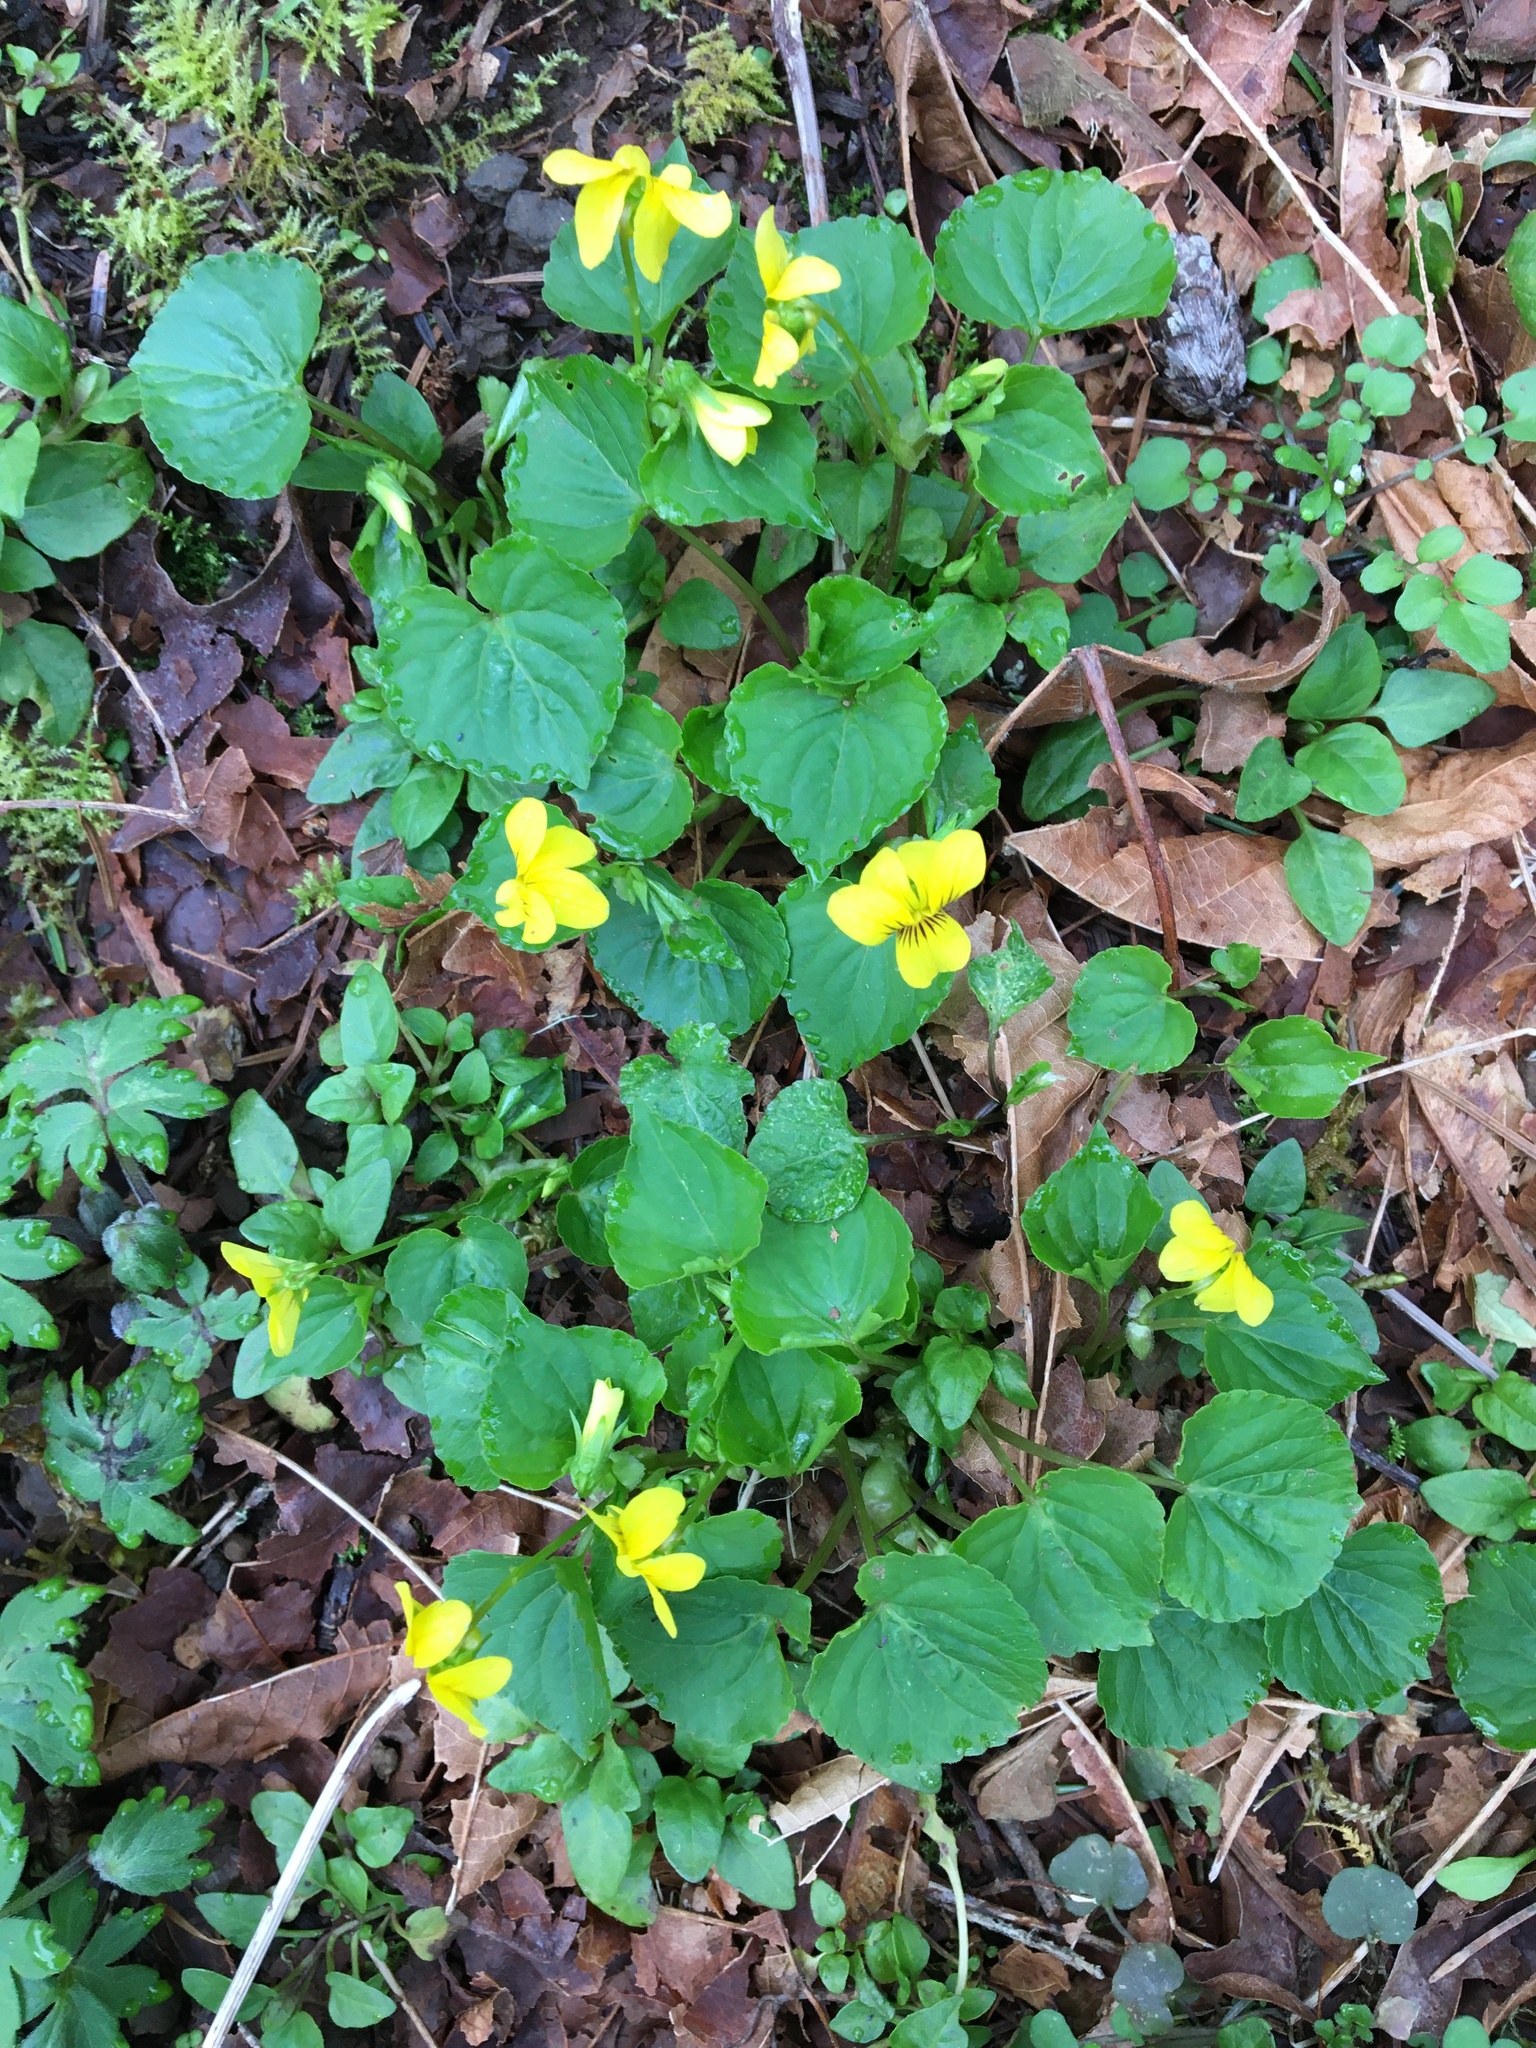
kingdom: Plantae
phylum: Tracheophyta
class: Magnoliopsida
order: Malpighiales
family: Violaceae
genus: Viola
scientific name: Viola glabella
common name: Stream violet
